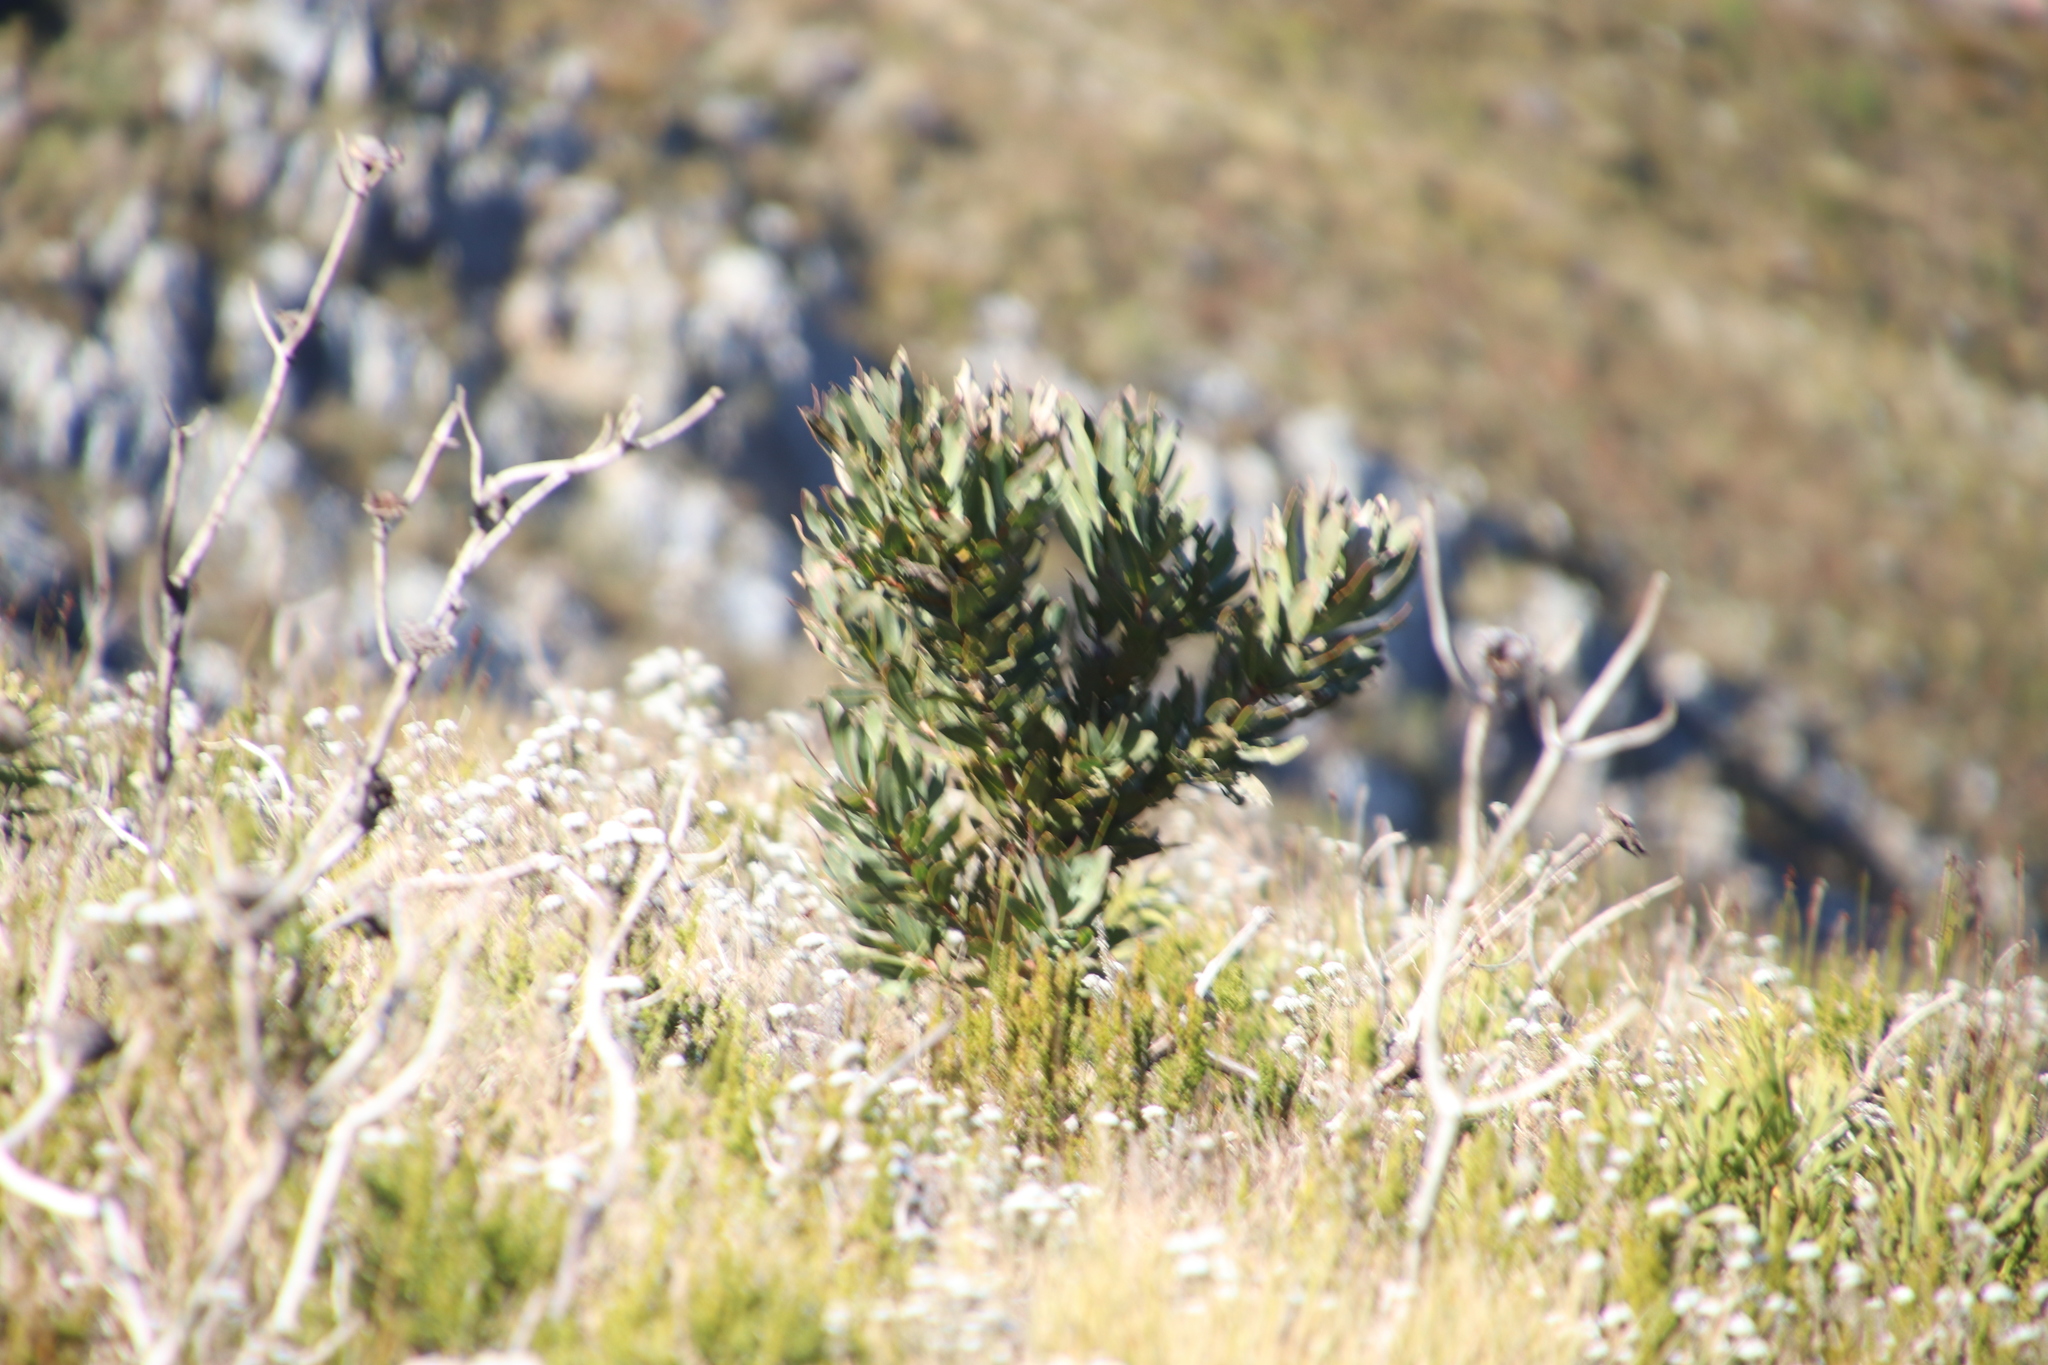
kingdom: Plantae
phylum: Tracheophyta
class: Magnoliopsida
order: Proteales
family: Proteaceae
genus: Protea
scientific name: Protea laurifolia
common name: Grey-leaf sugarbsh
